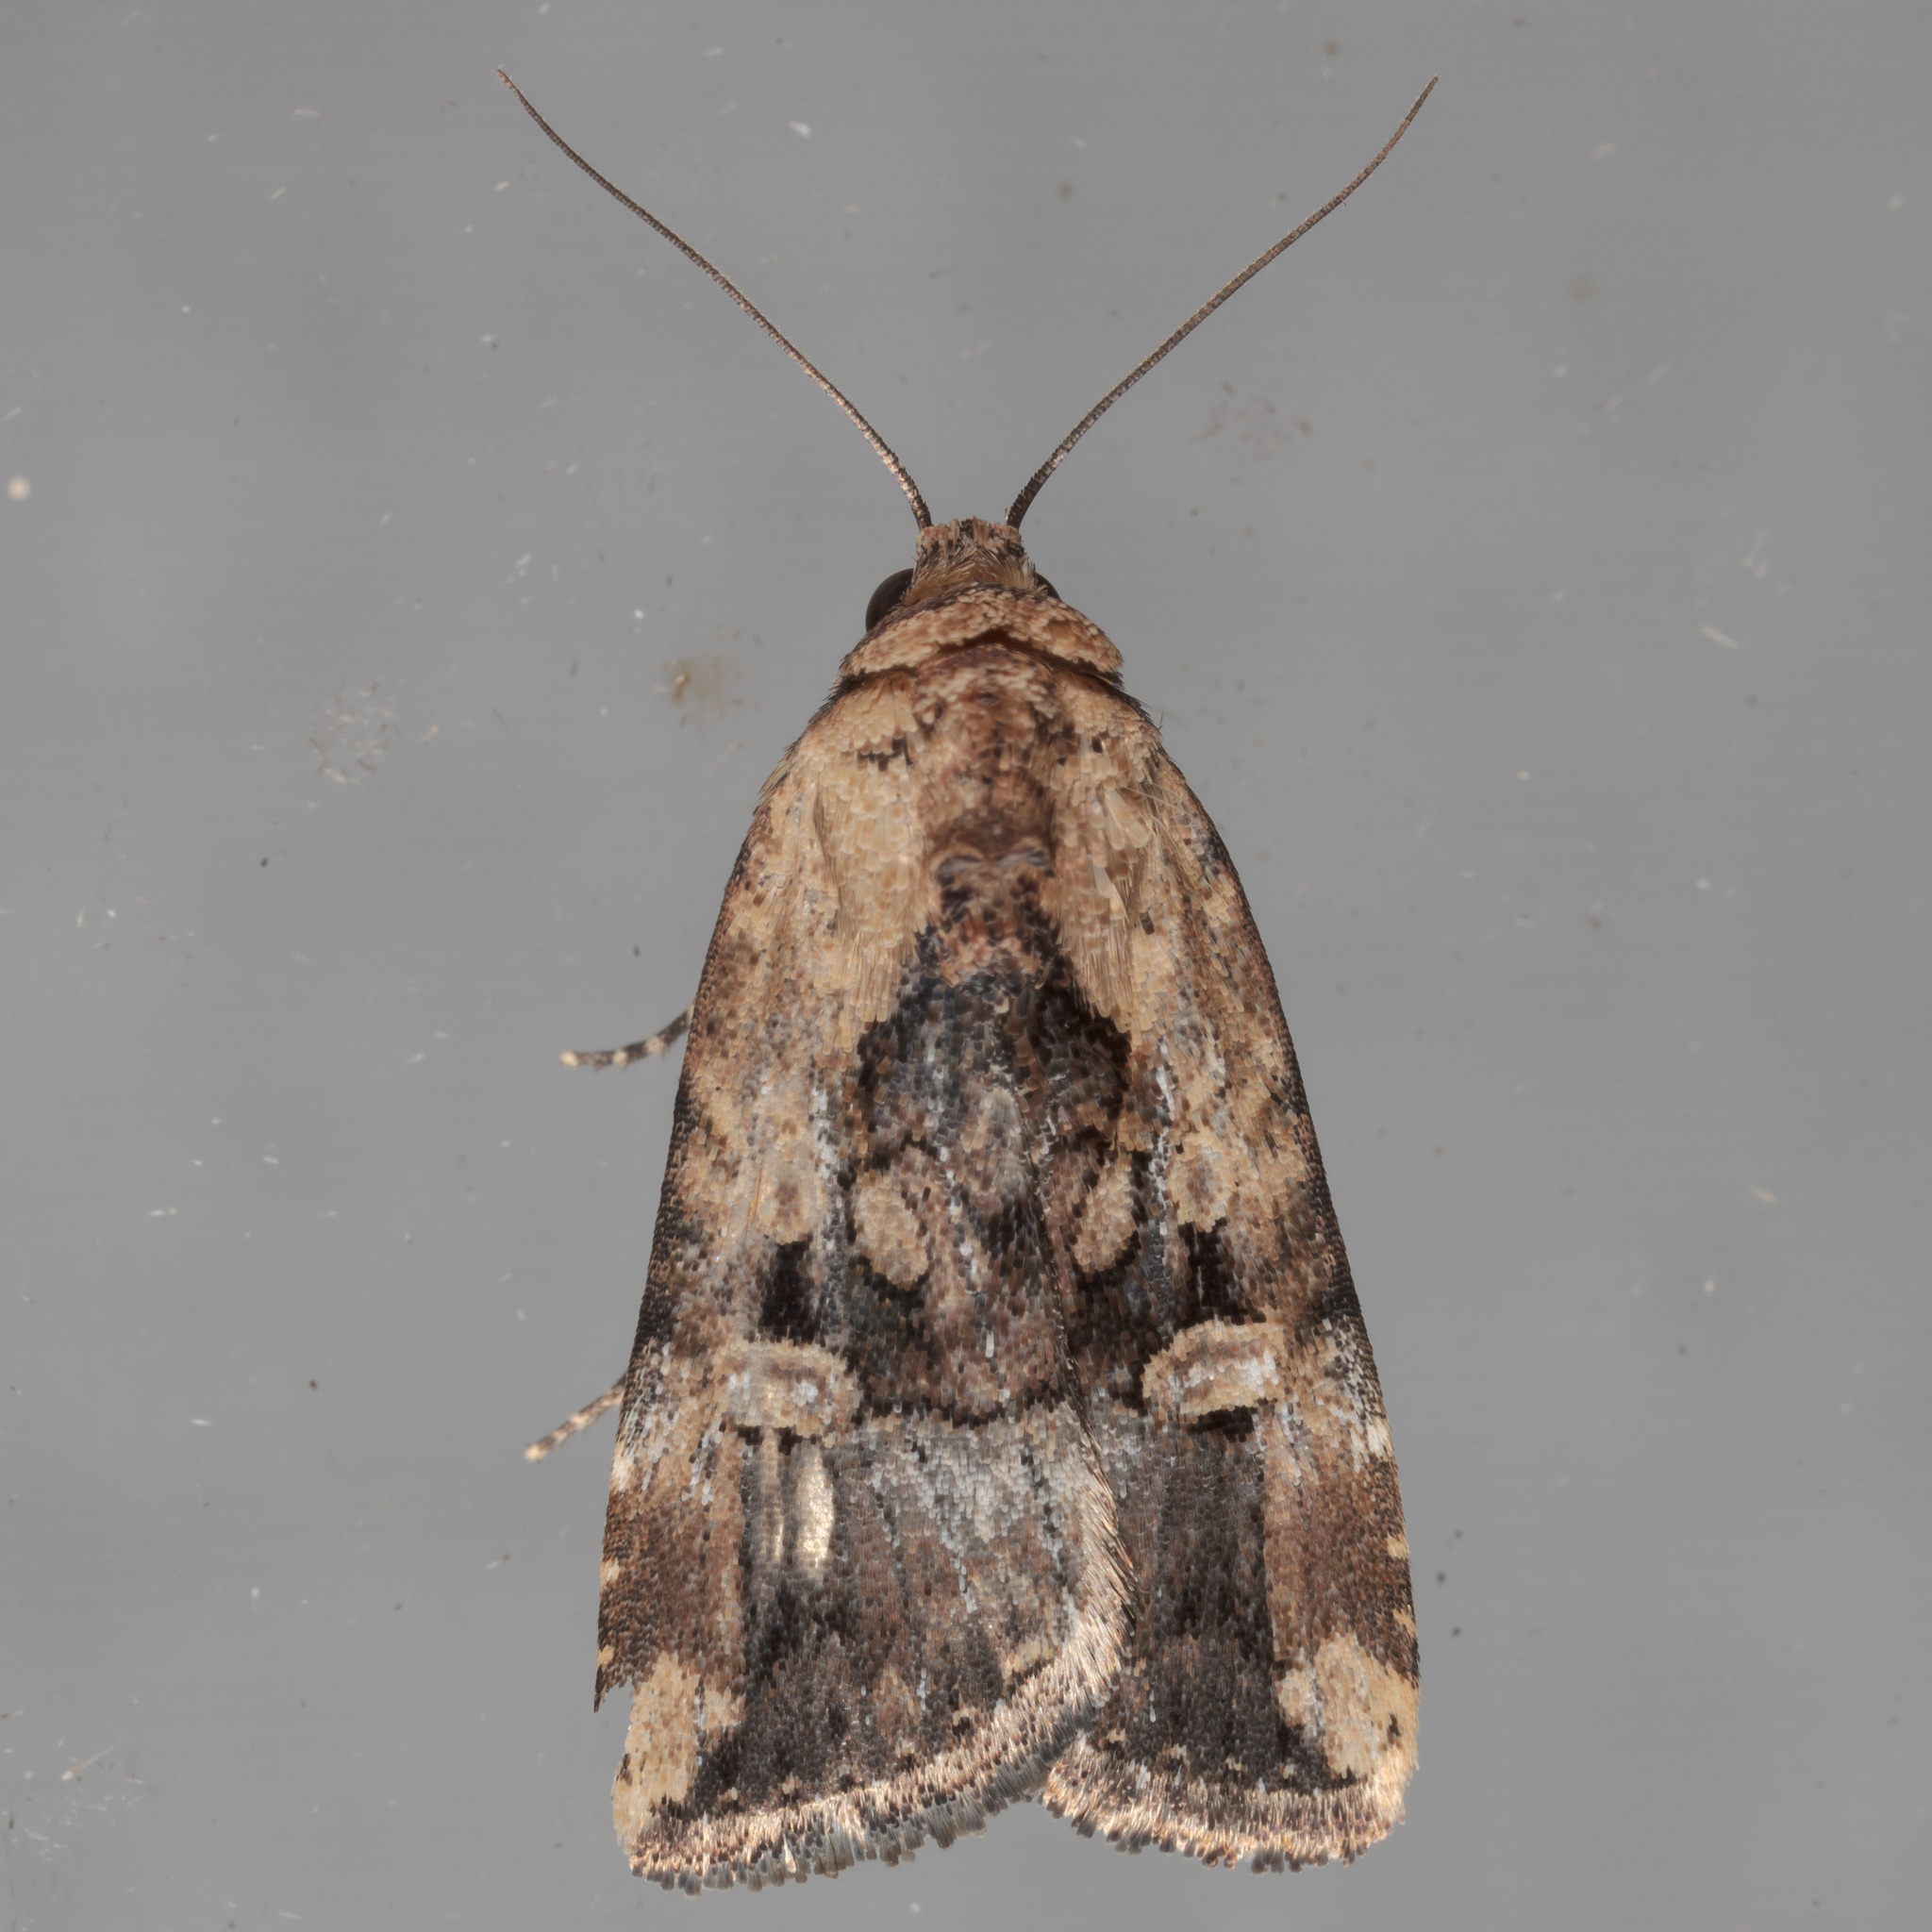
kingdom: Animalia
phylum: Arthropoda
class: Insecta
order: Lepidoptera
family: Noctuidae
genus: Elaphria
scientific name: Elaphria chalcedonia
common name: Chalcedony midget
